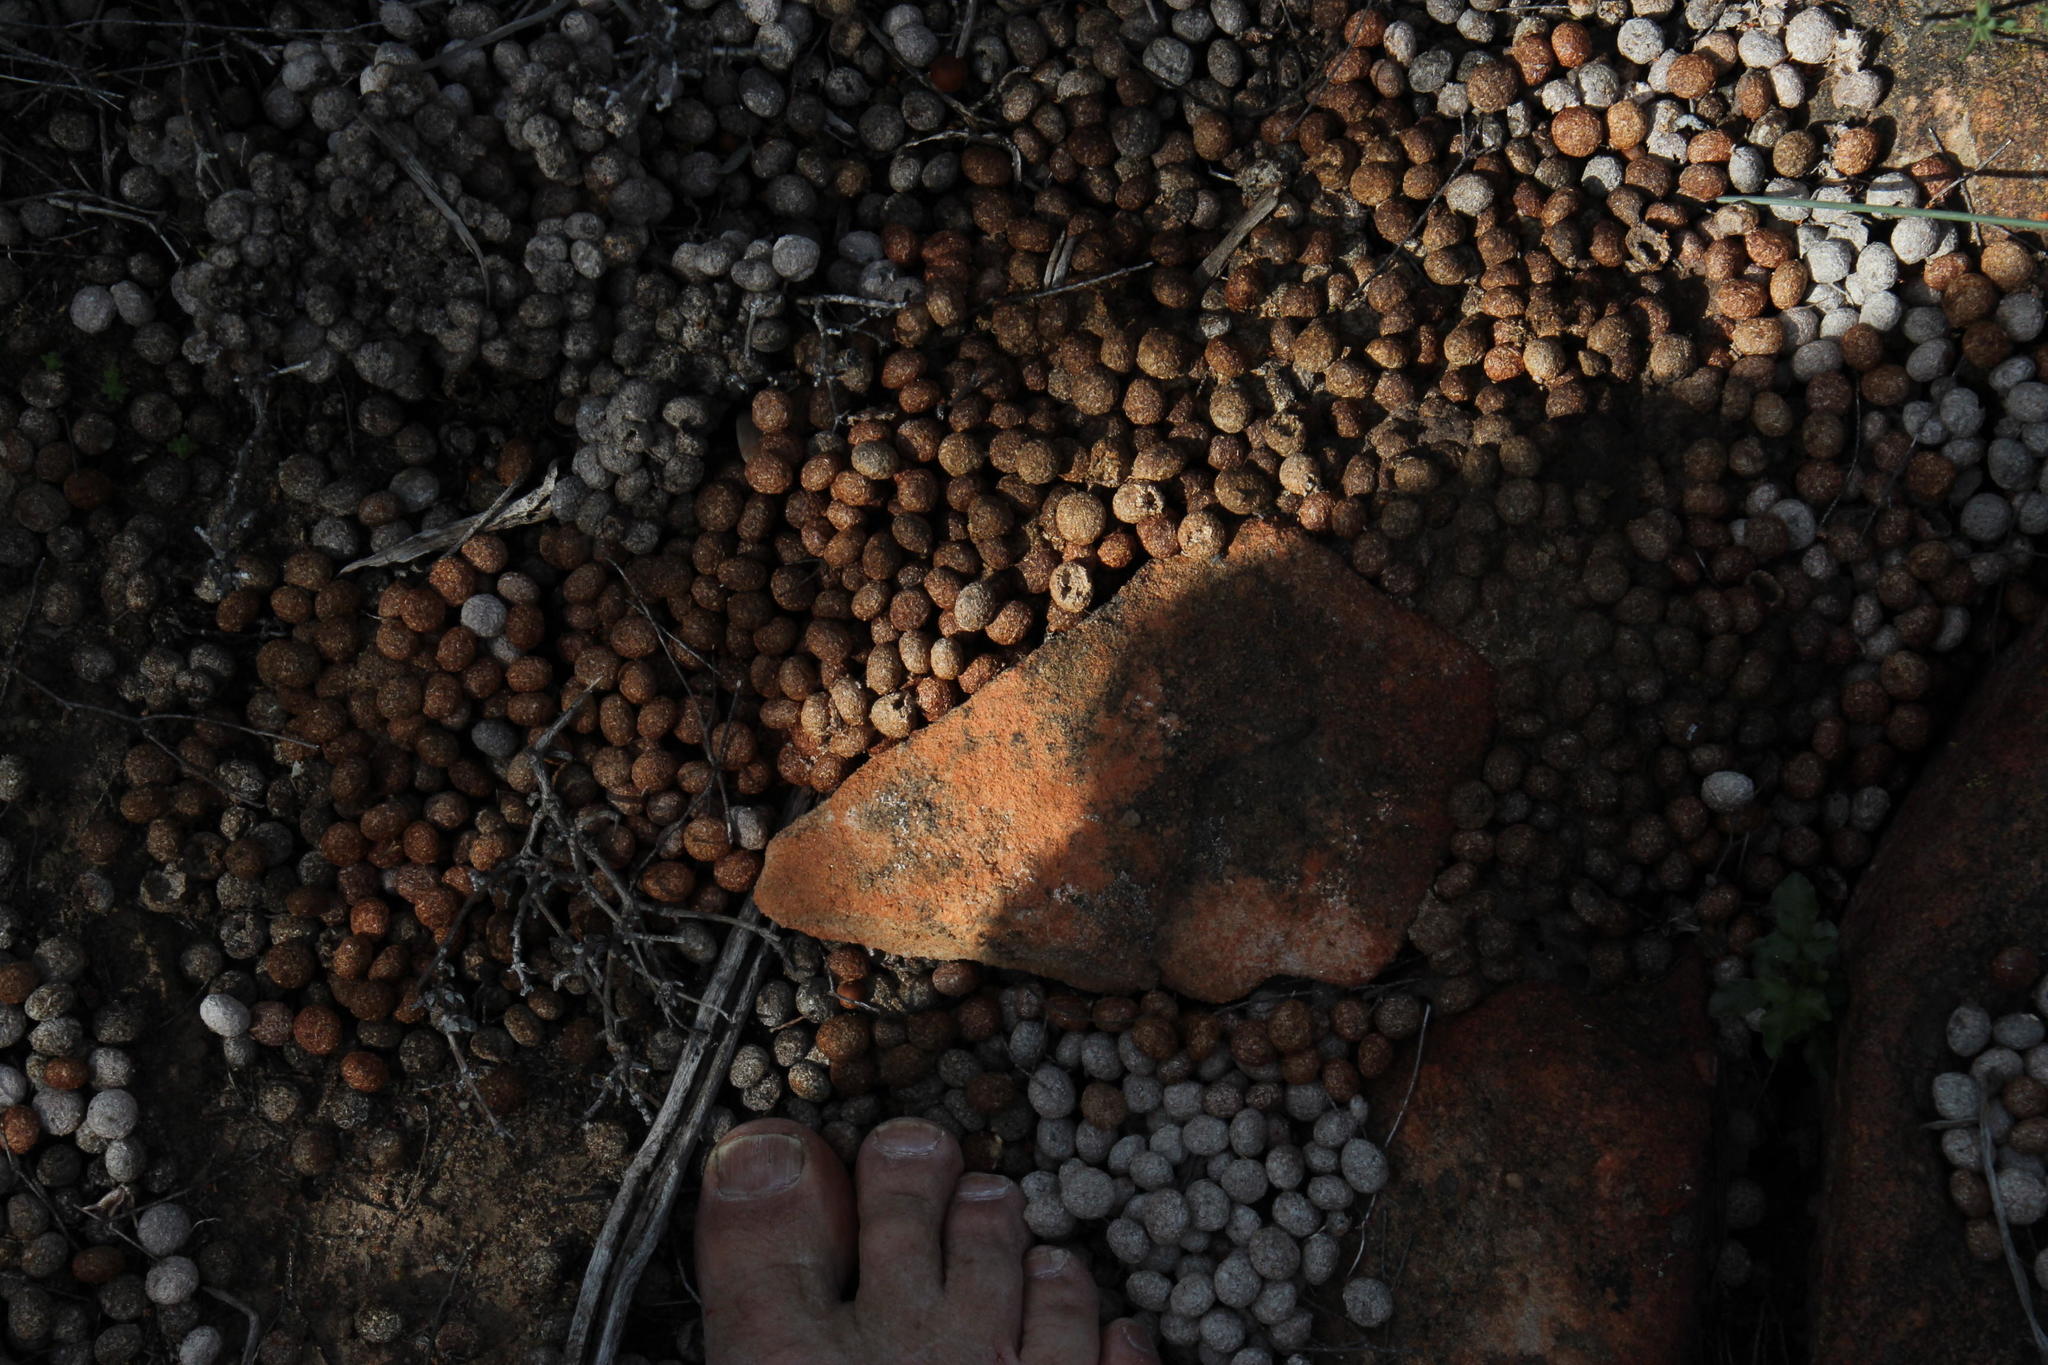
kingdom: Animalia
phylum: Chordata
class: Mammalia
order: Lagomorpha
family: Leporidae
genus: Pronolagus
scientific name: Pronolagus saundersiae
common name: Hewitt's red rock hare
